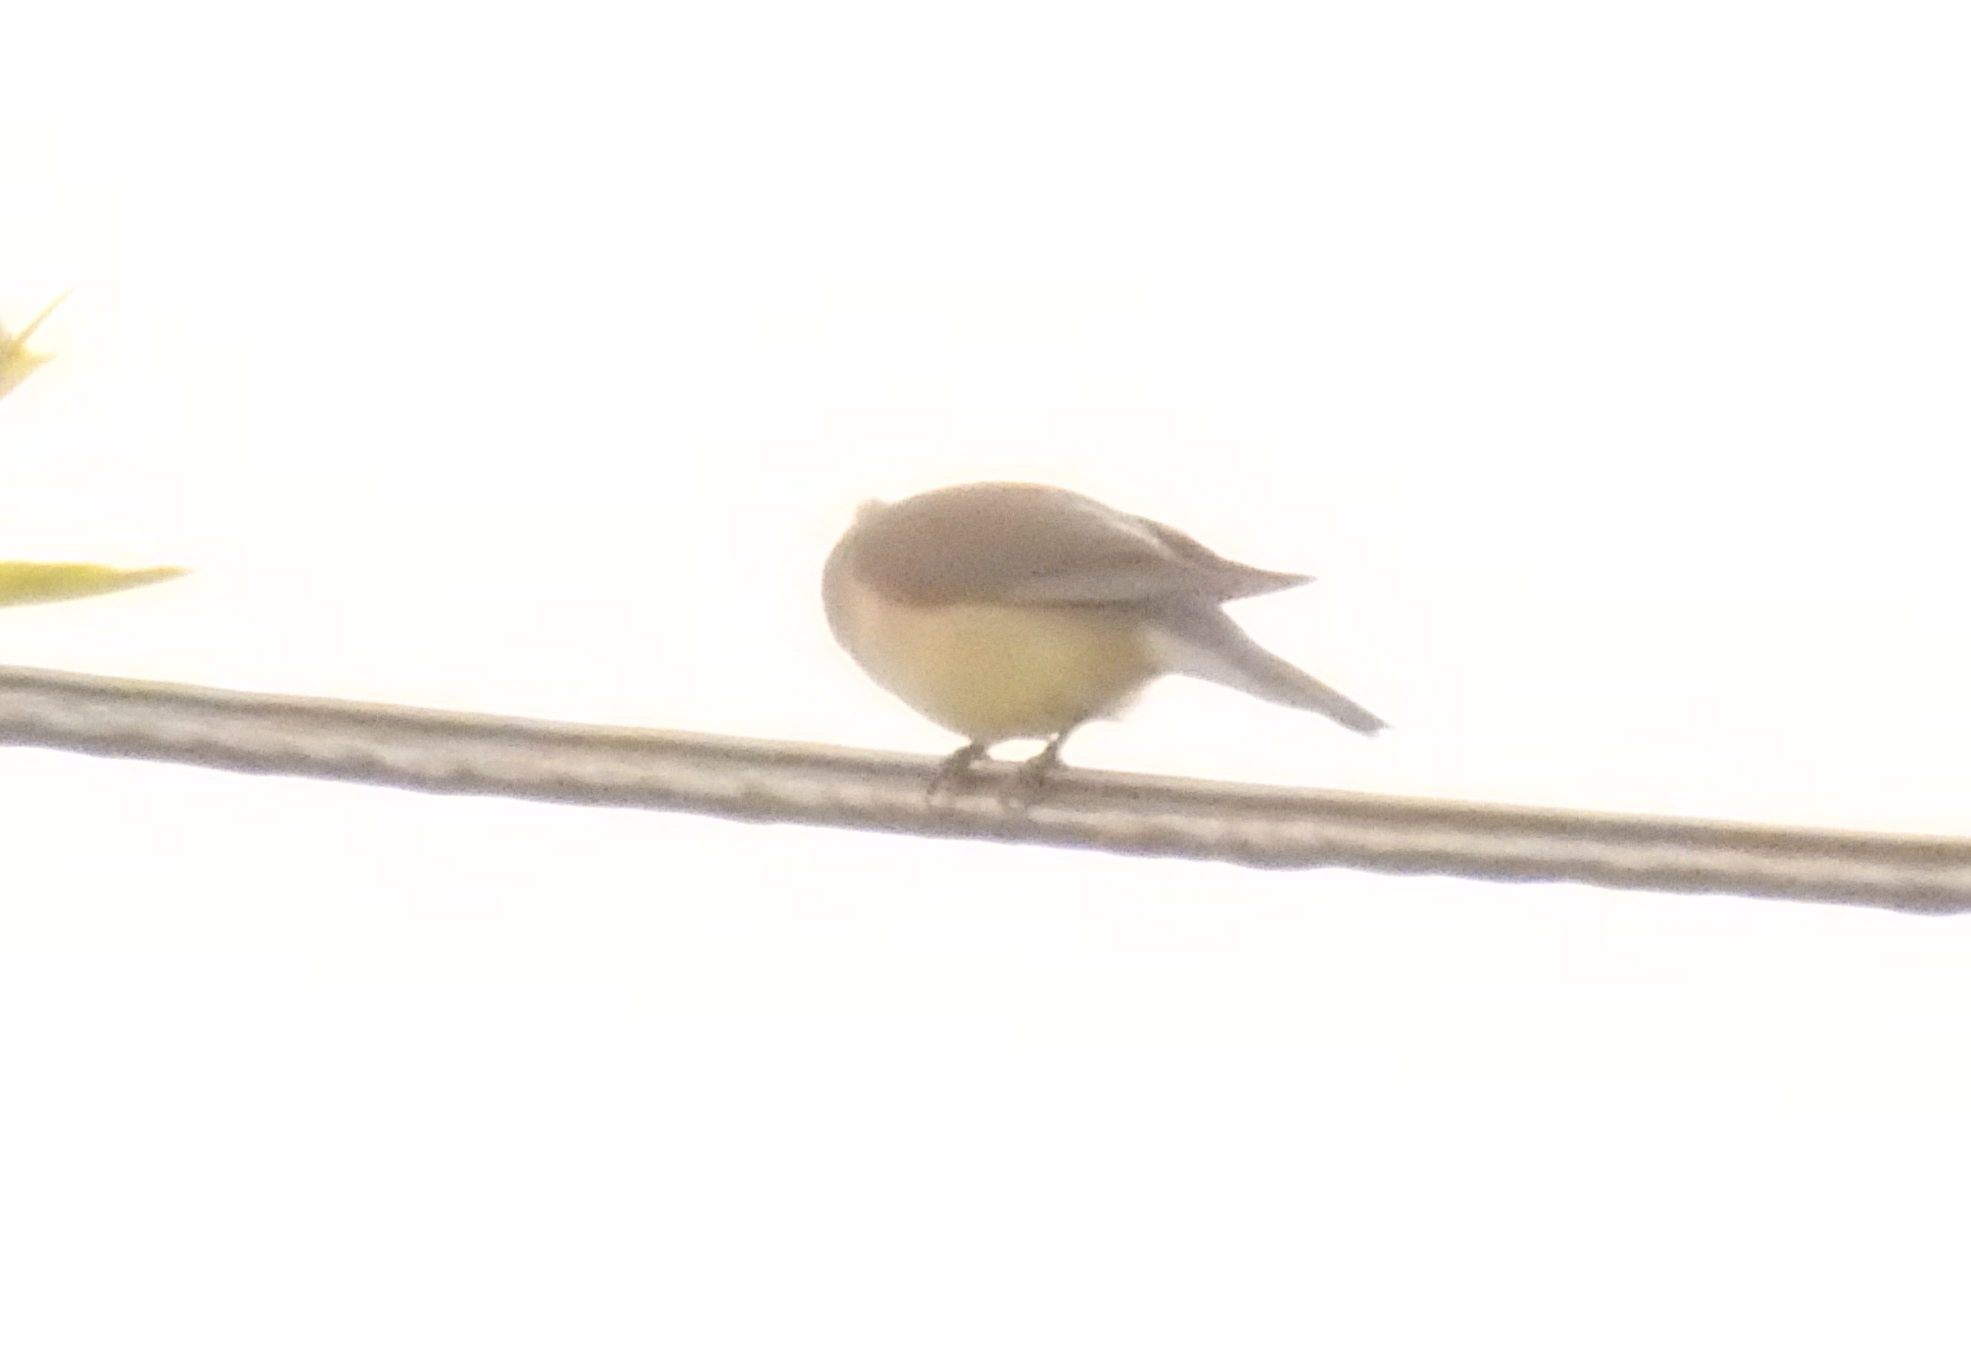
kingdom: Animalia
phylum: Chordata
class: Aves
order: Passeriformes
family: Bombycillidae
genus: Bombycilla
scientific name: Bombycilla cedrorum
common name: Cedar waxwing
